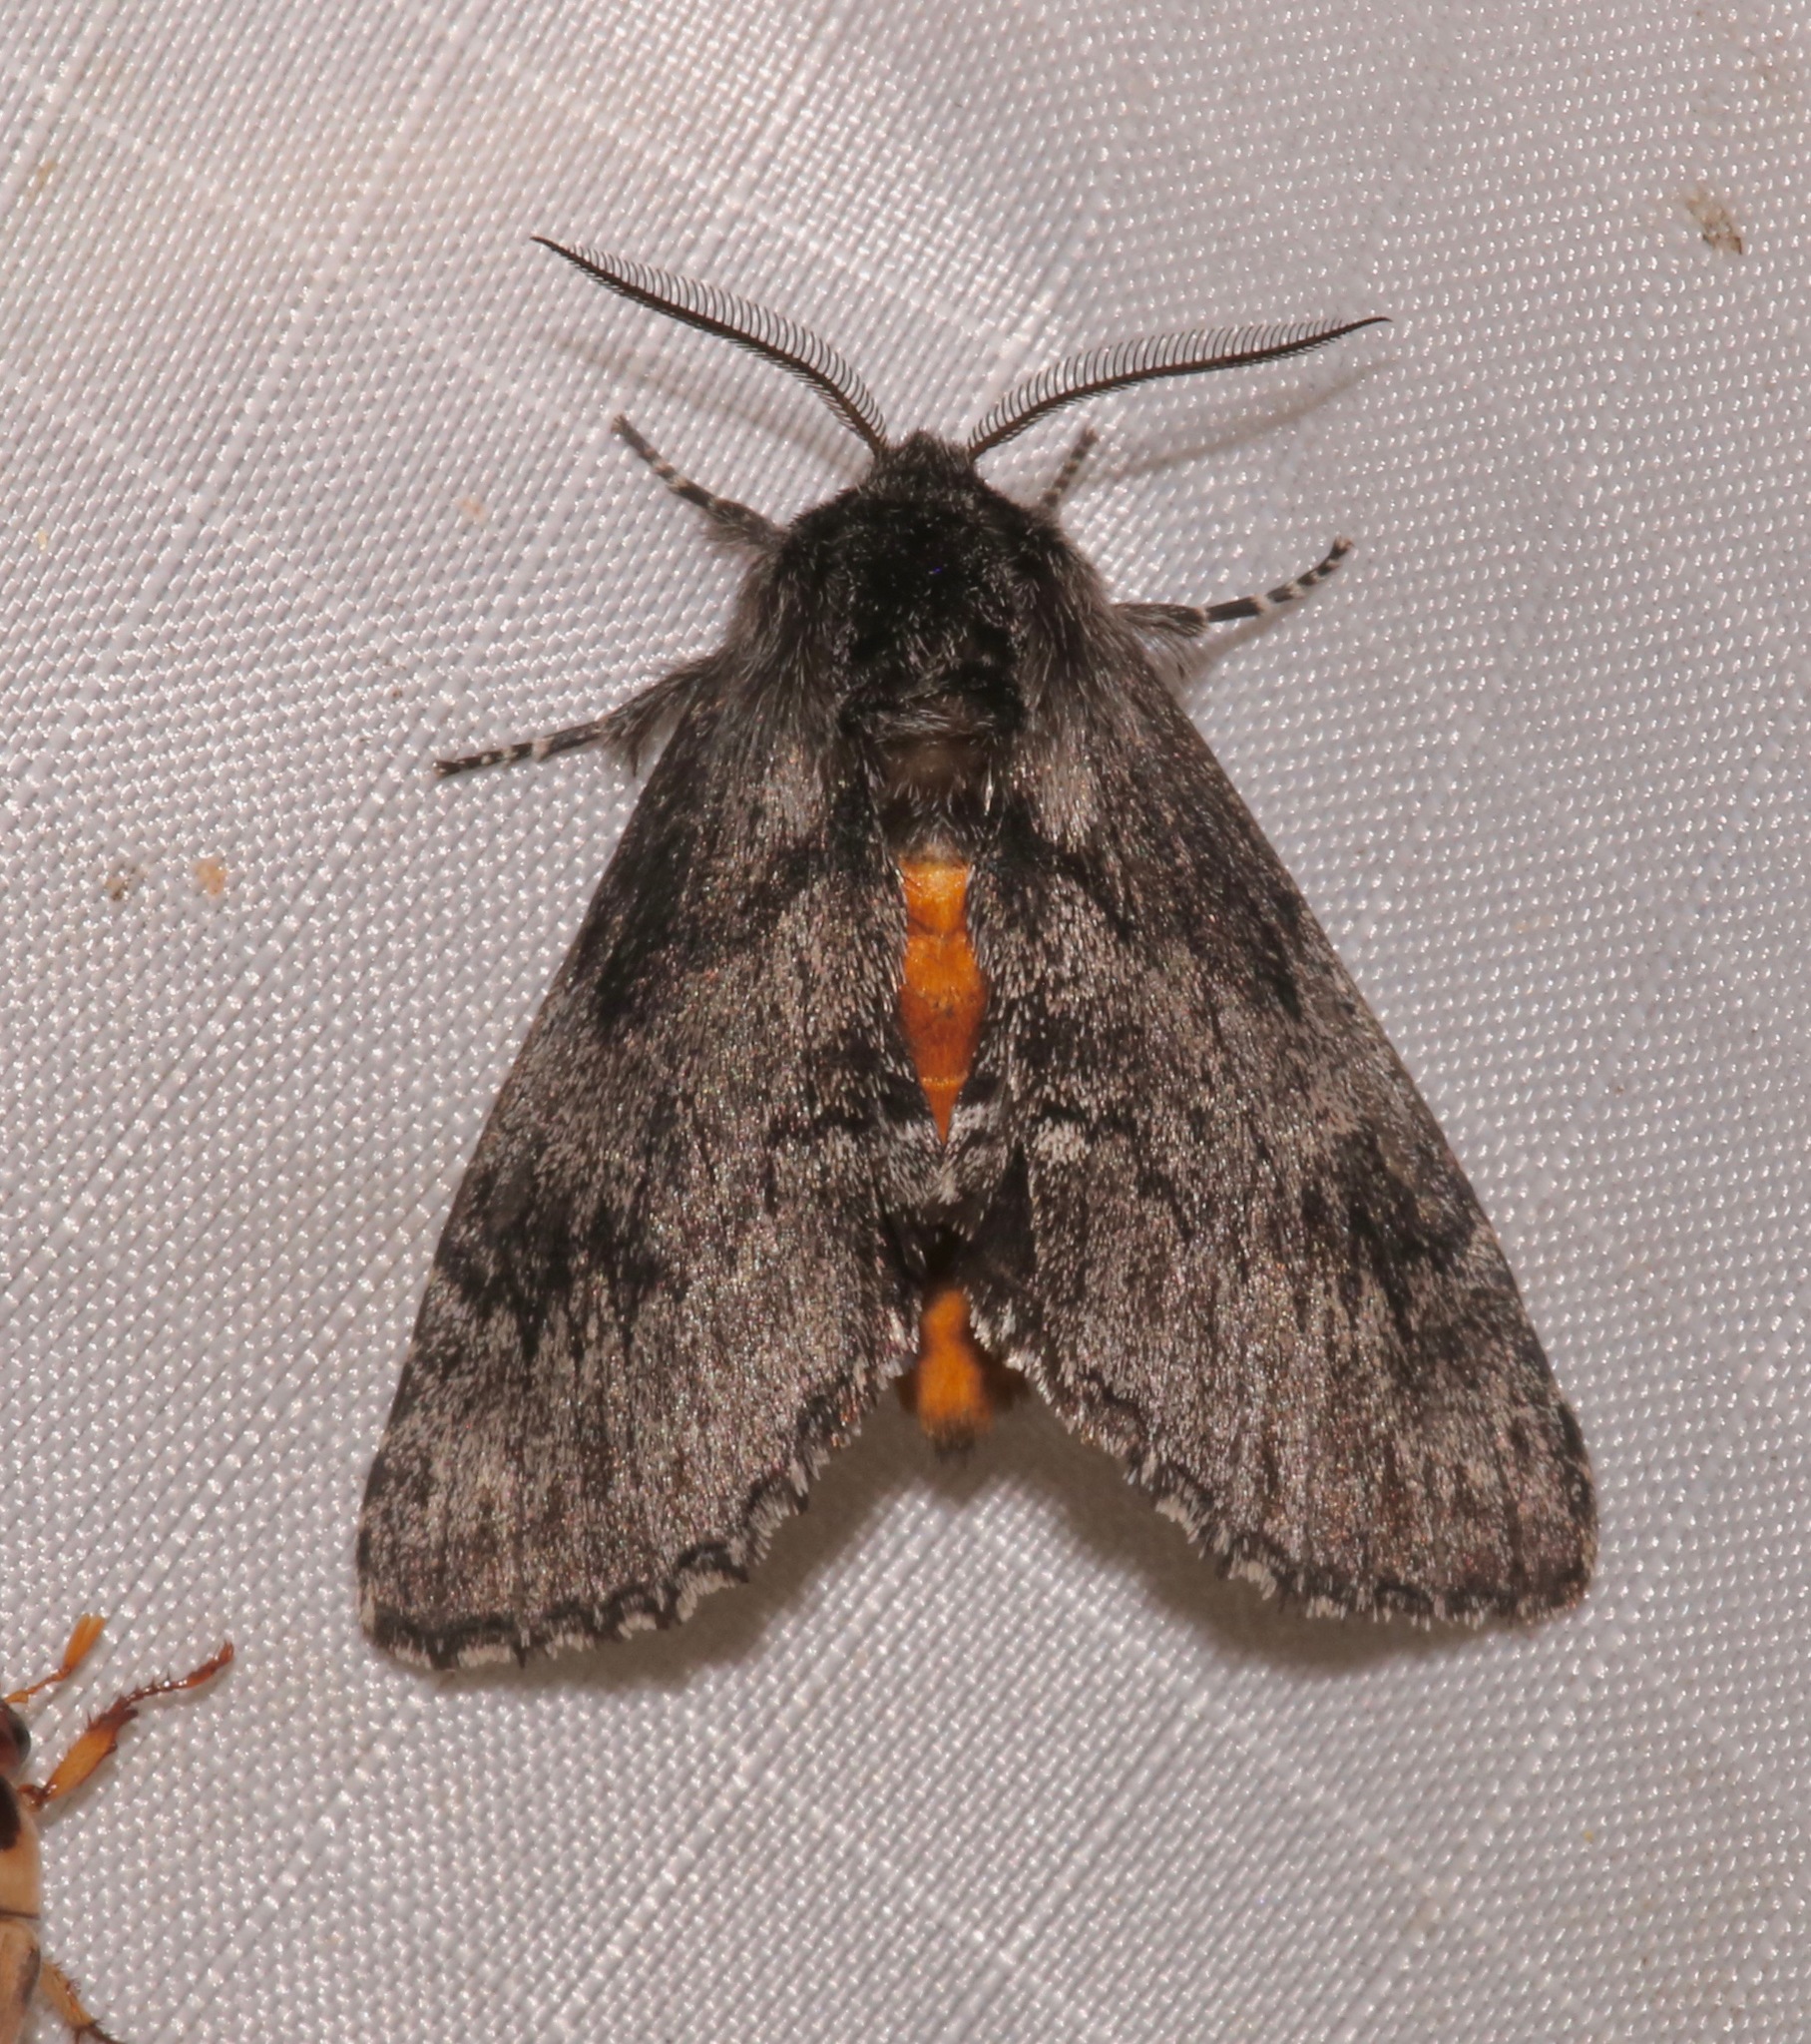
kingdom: Animalia
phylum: Arthropoda
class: Insecta
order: Lepidoptera
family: Notodontidae
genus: Cargida
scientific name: Cargida pyrrha
